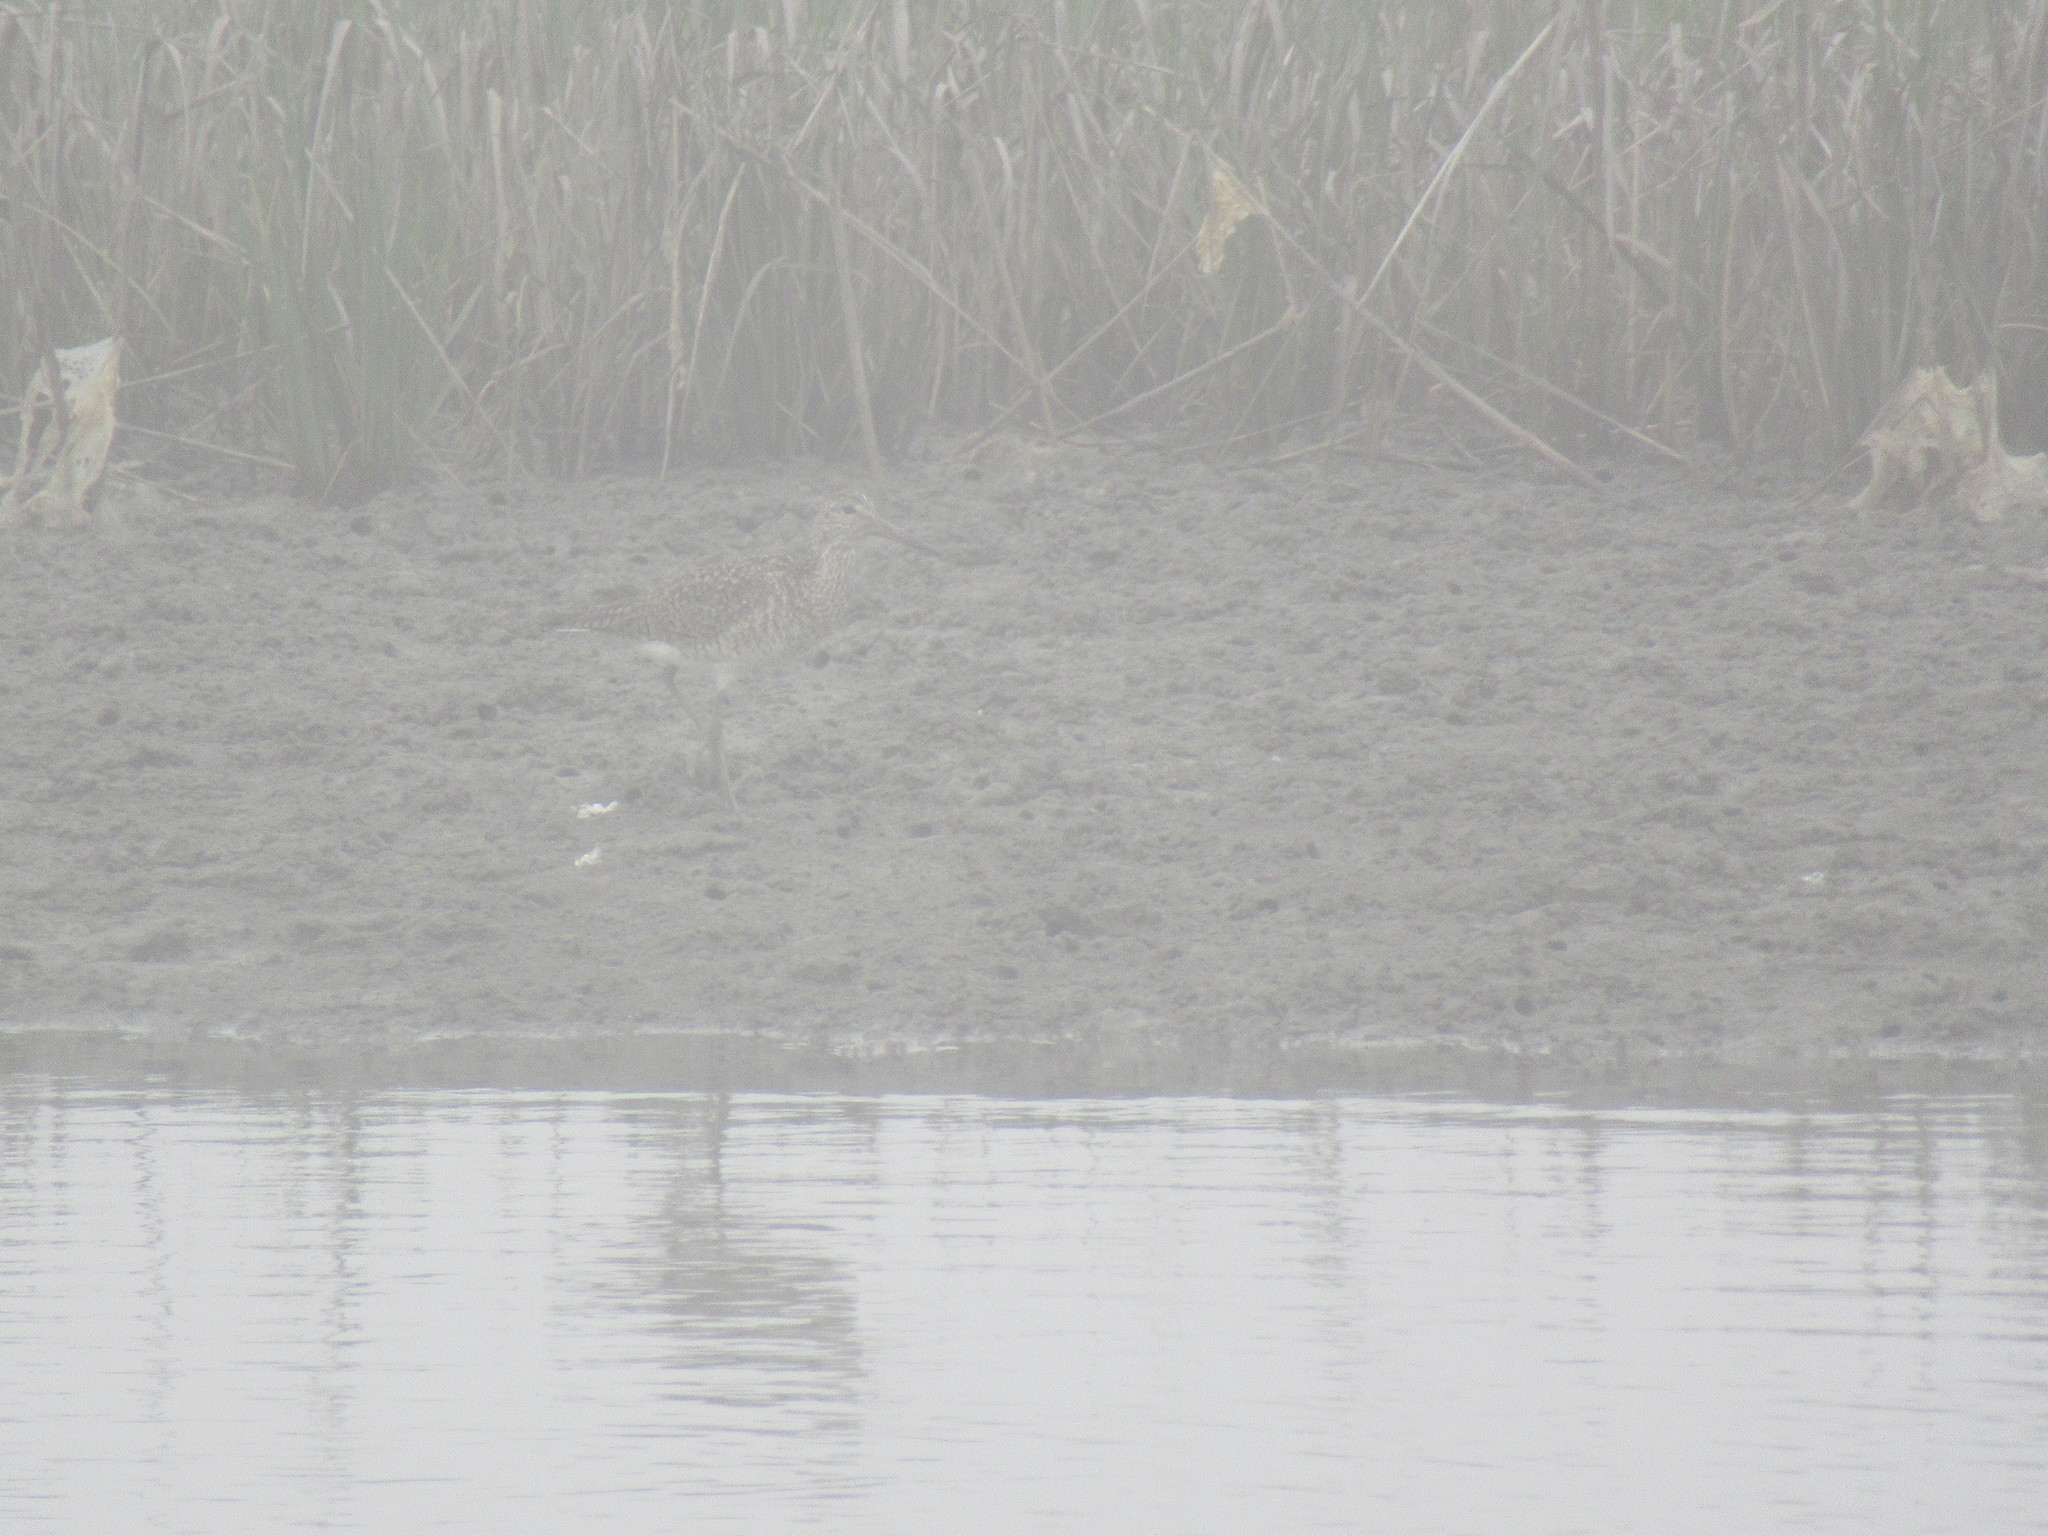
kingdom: Animalia
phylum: Chordata
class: Aves
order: Charadriiformes
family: Scolopacidae
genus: Tringa
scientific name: Tringa semipalmata
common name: Willet
